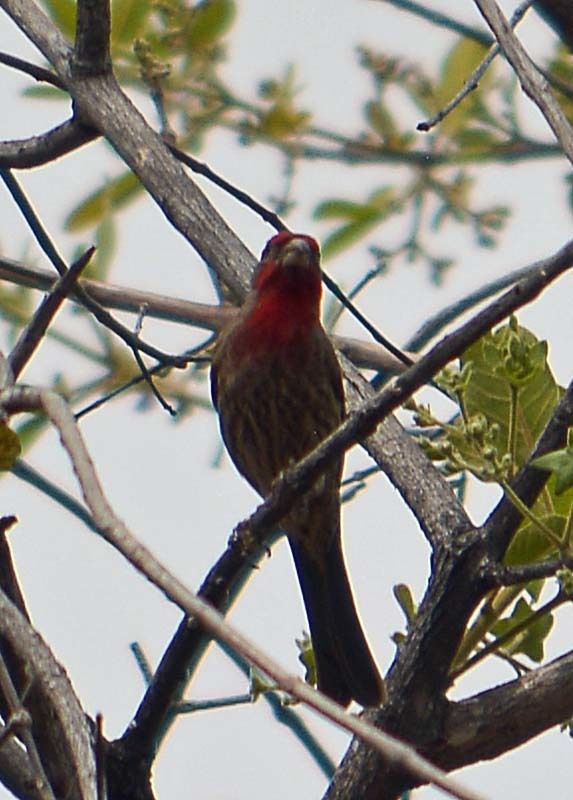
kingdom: Animalia
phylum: Chordata
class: Aves
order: Passeriformes
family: Fringillidae
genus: Haemorhous
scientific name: Haemorhous mexicanus
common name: House finch
